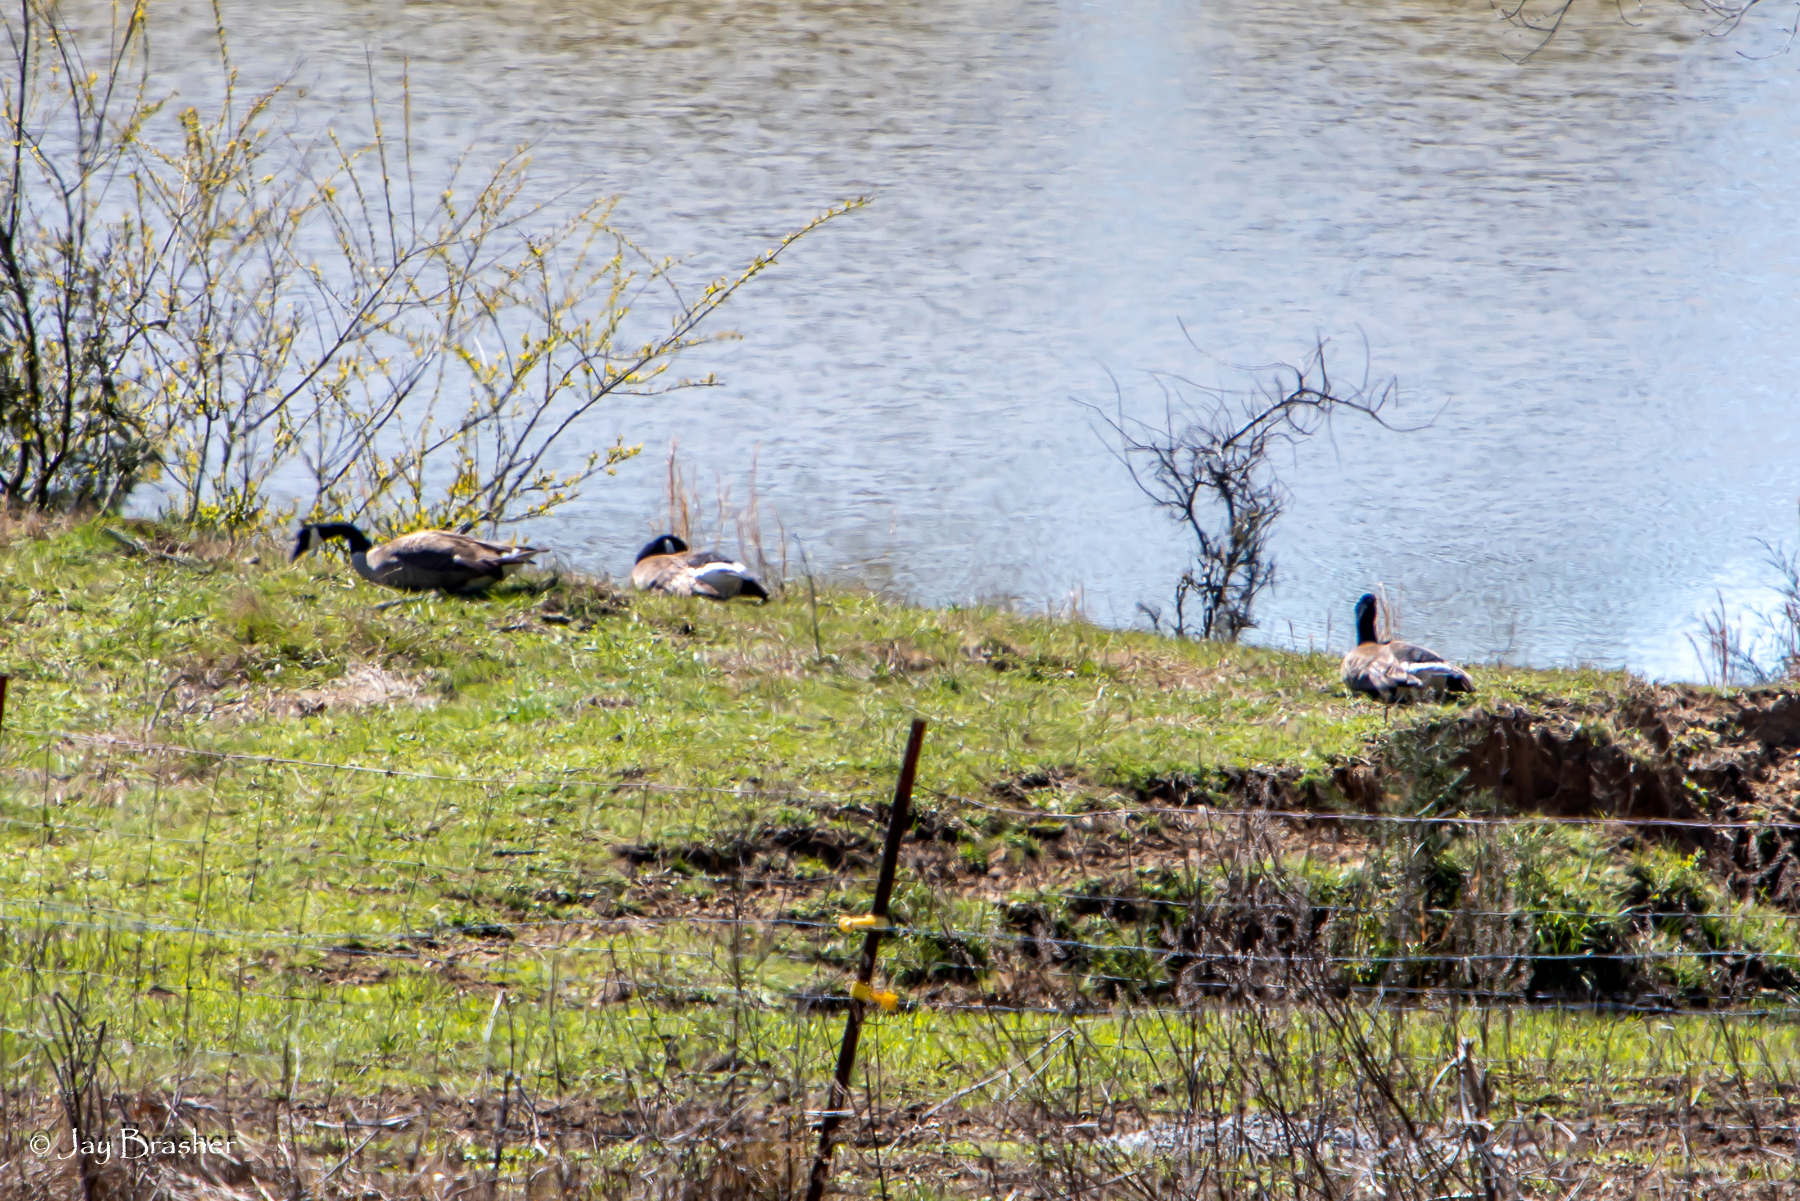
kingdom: Animalia
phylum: Chordata
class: Aves
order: Anseriformes
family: Anatidae
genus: Branta
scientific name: Branta canadensis
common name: Canada goose
